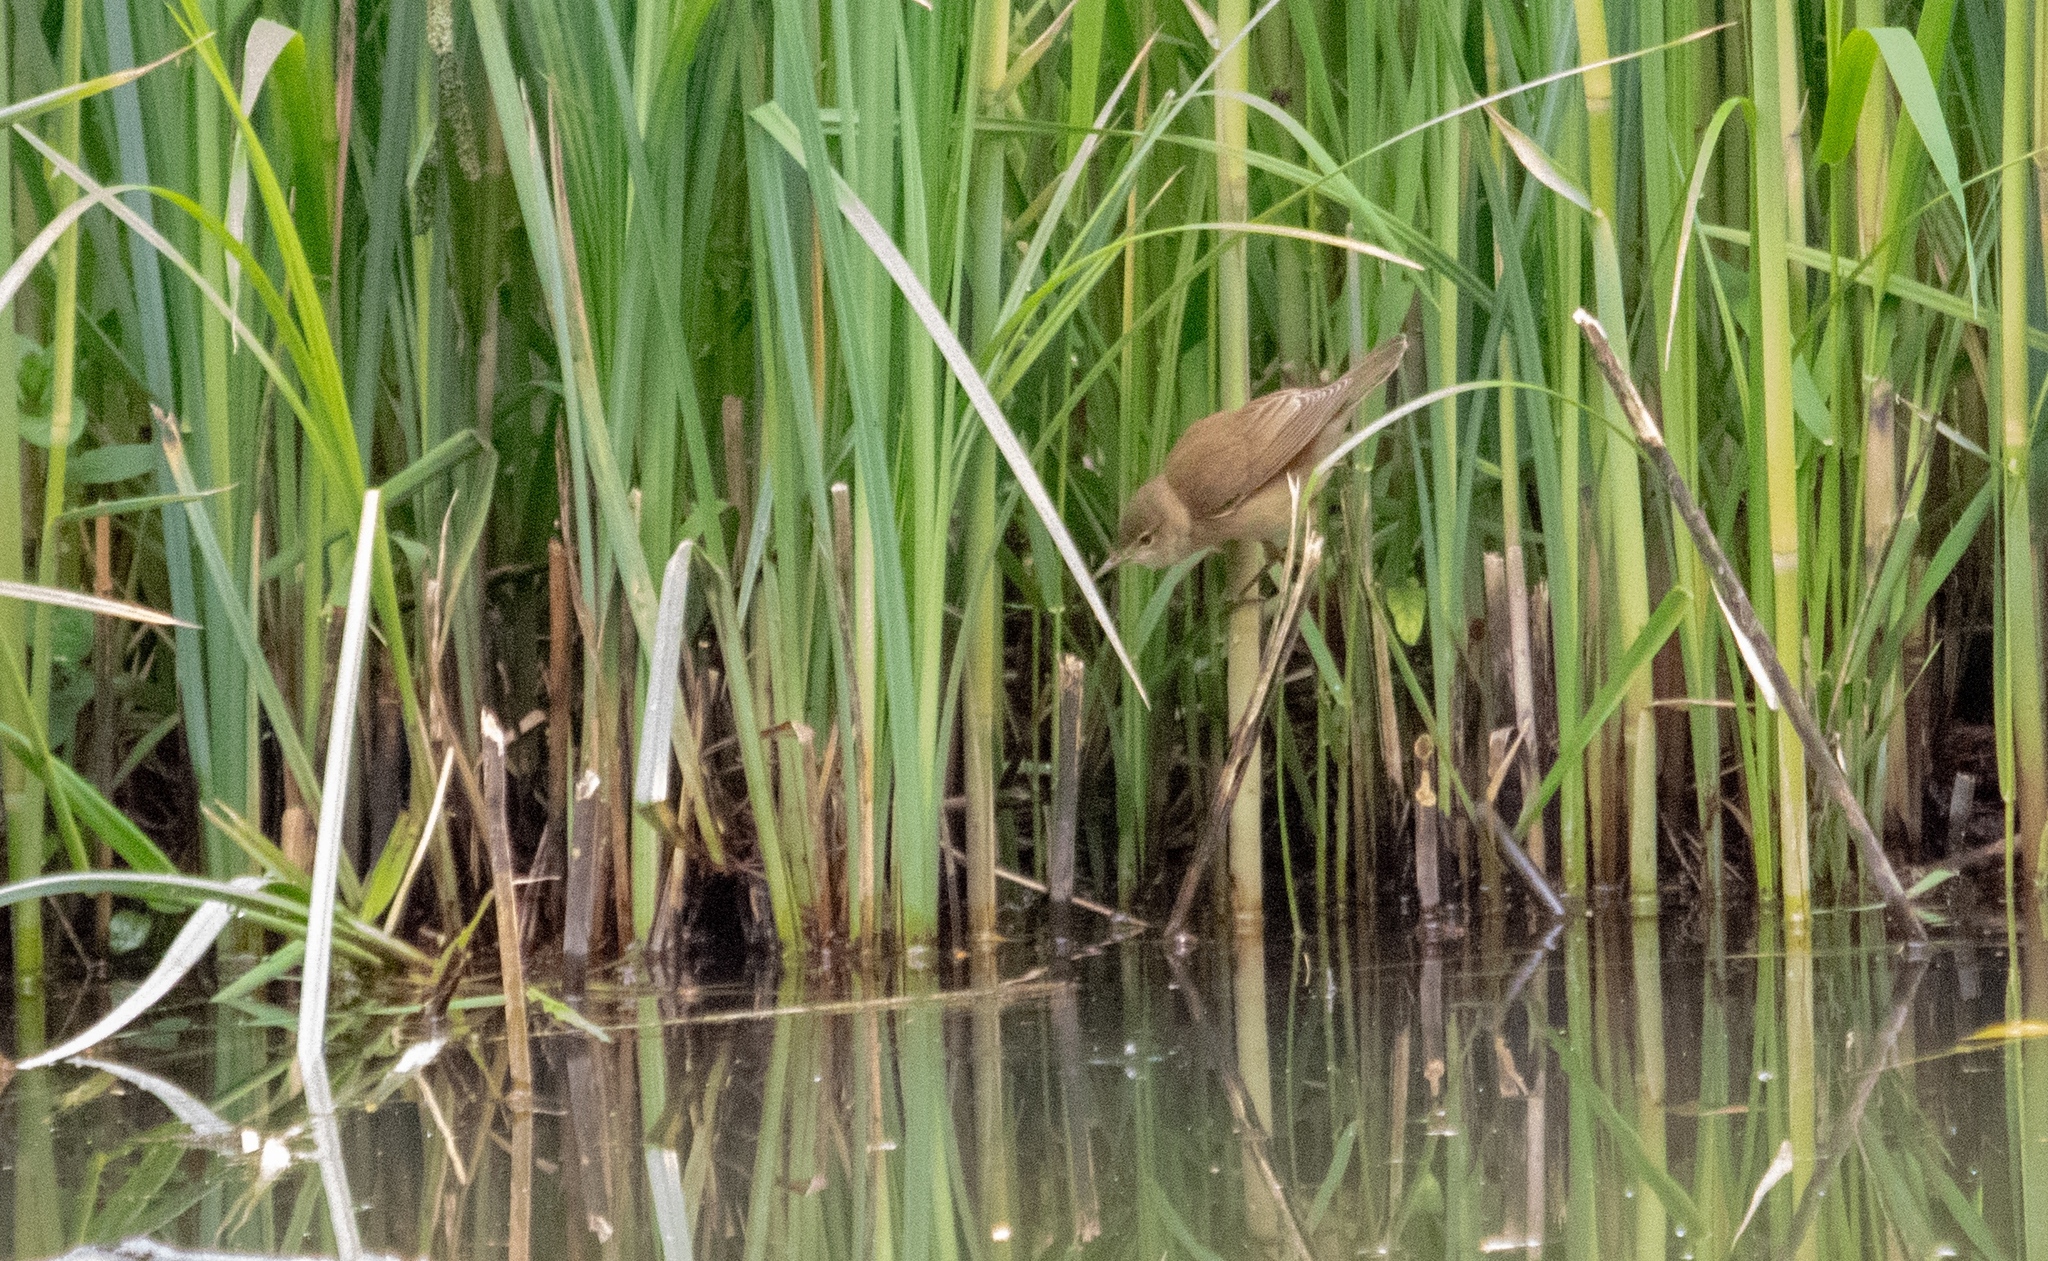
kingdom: Animalia
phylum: Chordata
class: Aves
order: Passeriformes
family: Acrocephalidae
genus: Acrocephalus
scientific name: Acrocephalus scirpaceus
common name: Eurasian reed warbler
